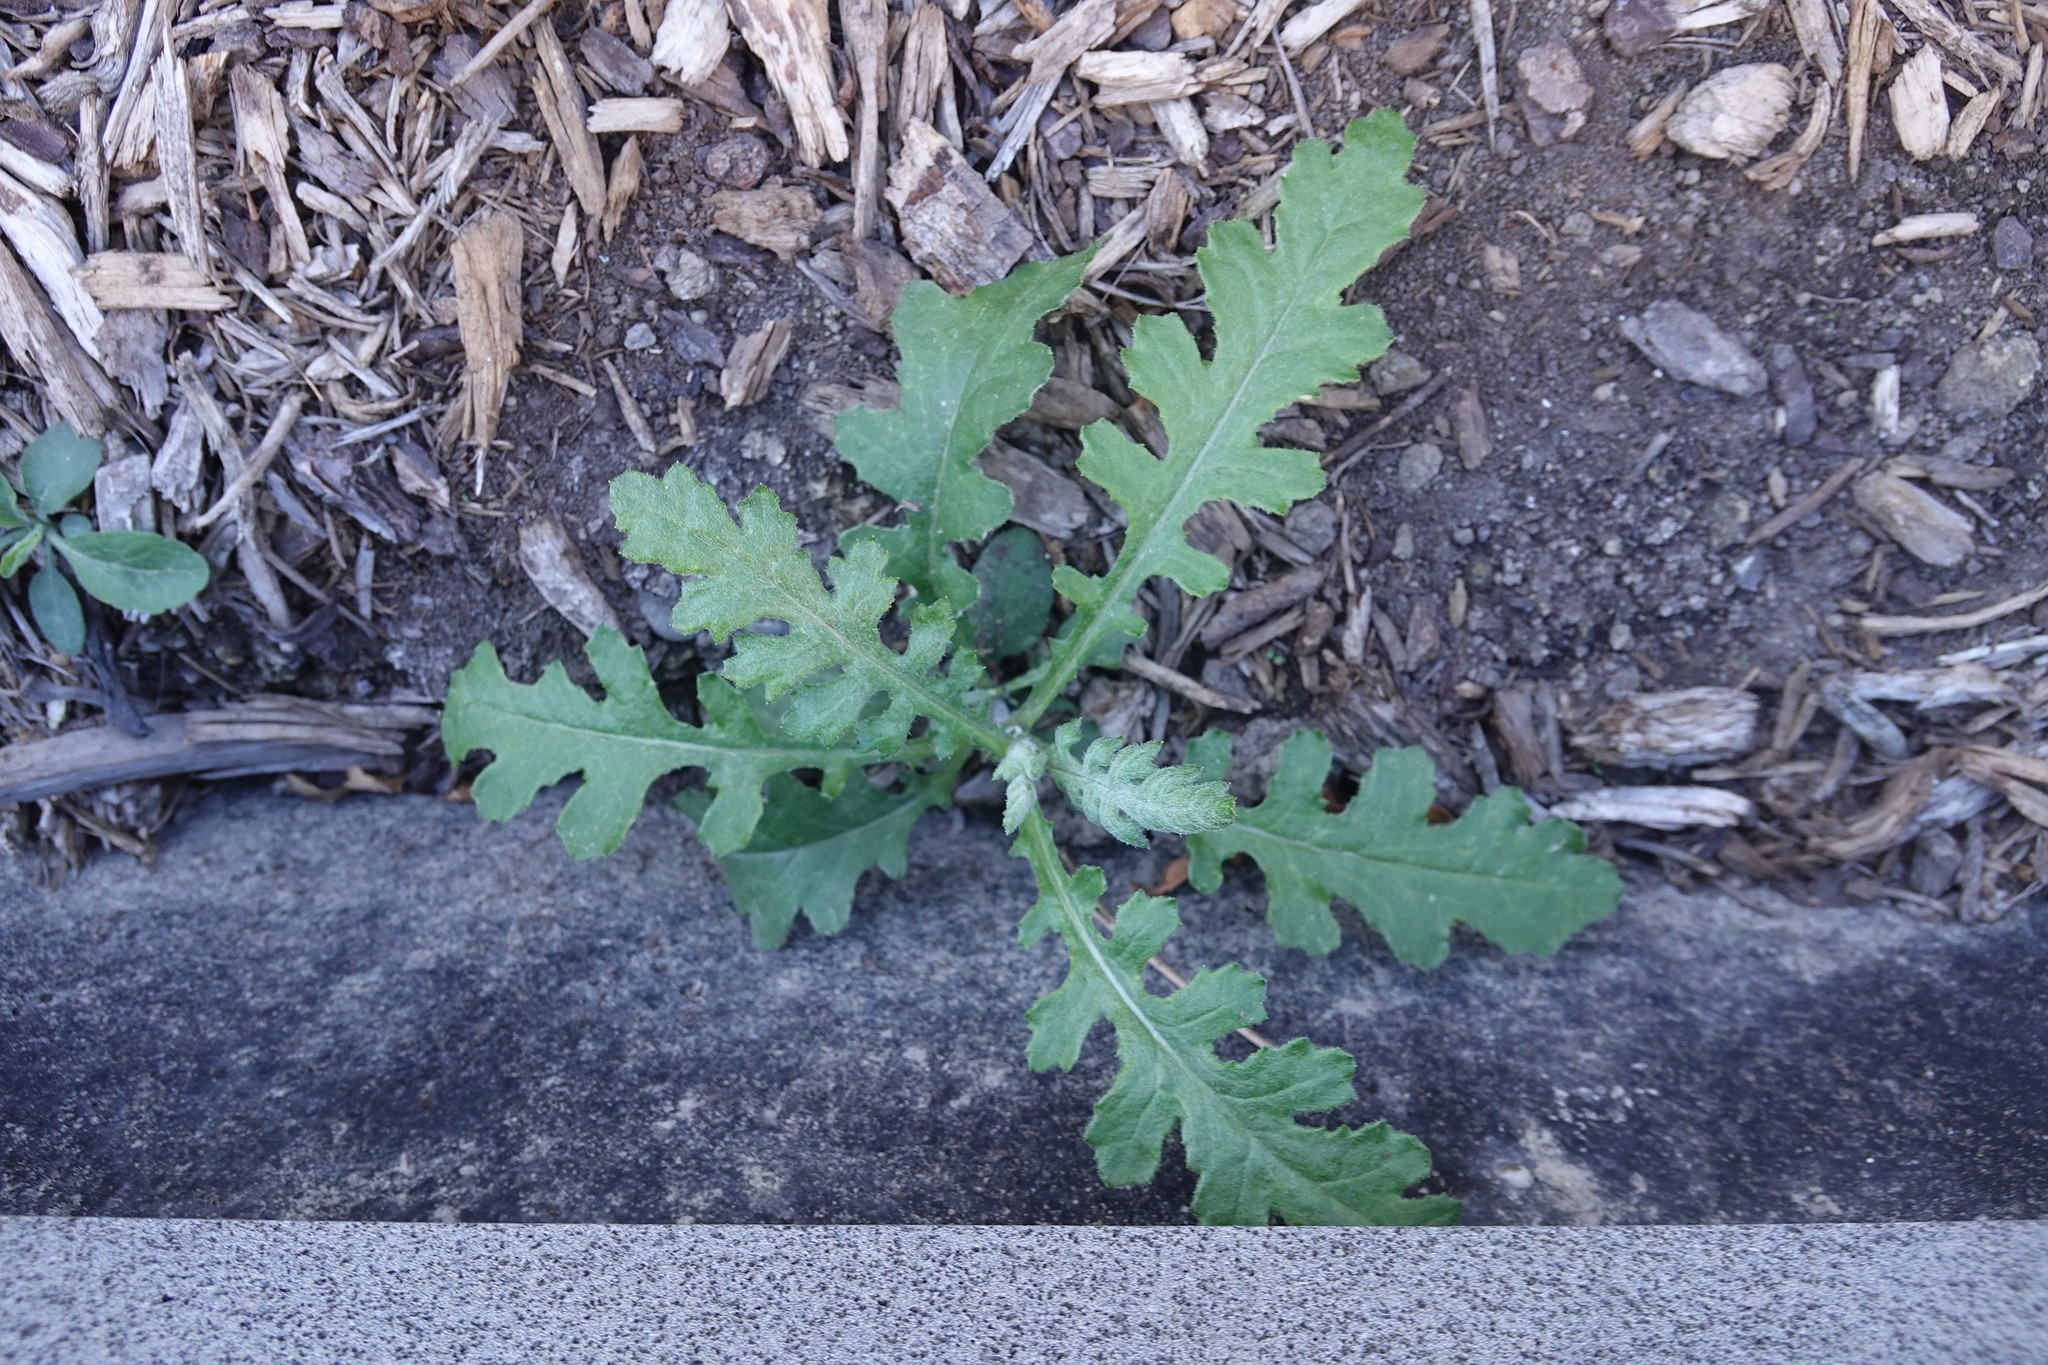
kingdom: Plantae
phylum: Tracheophyta
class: Magnoliopsida
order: Asterales
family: Asteraceae
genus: Senecio
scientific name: Senecio glomeratus
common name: Cutleaf burnweed
